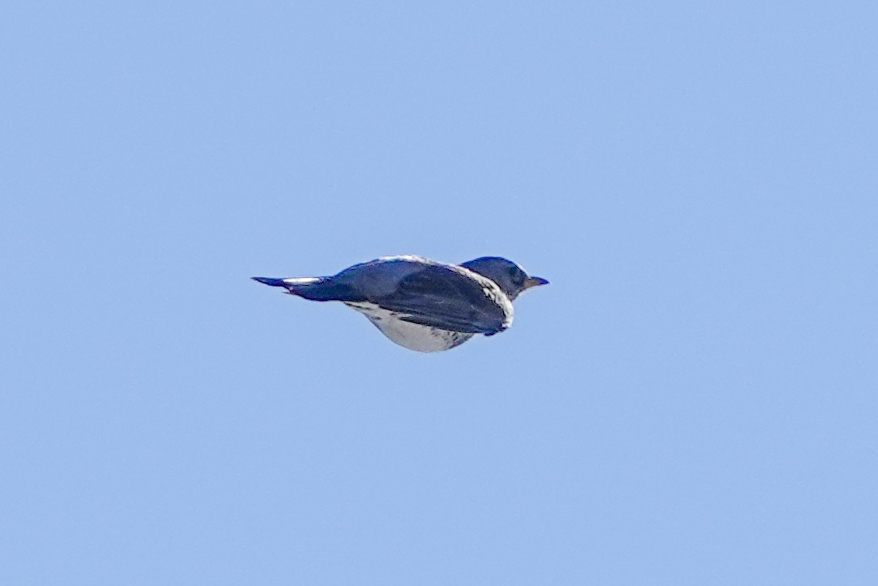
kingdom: Animalia
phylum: Chordata
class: Aves
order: Passeriformes
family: Turdidae
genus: Turdus
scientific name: Turdus pilaris
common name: Fieldfare
